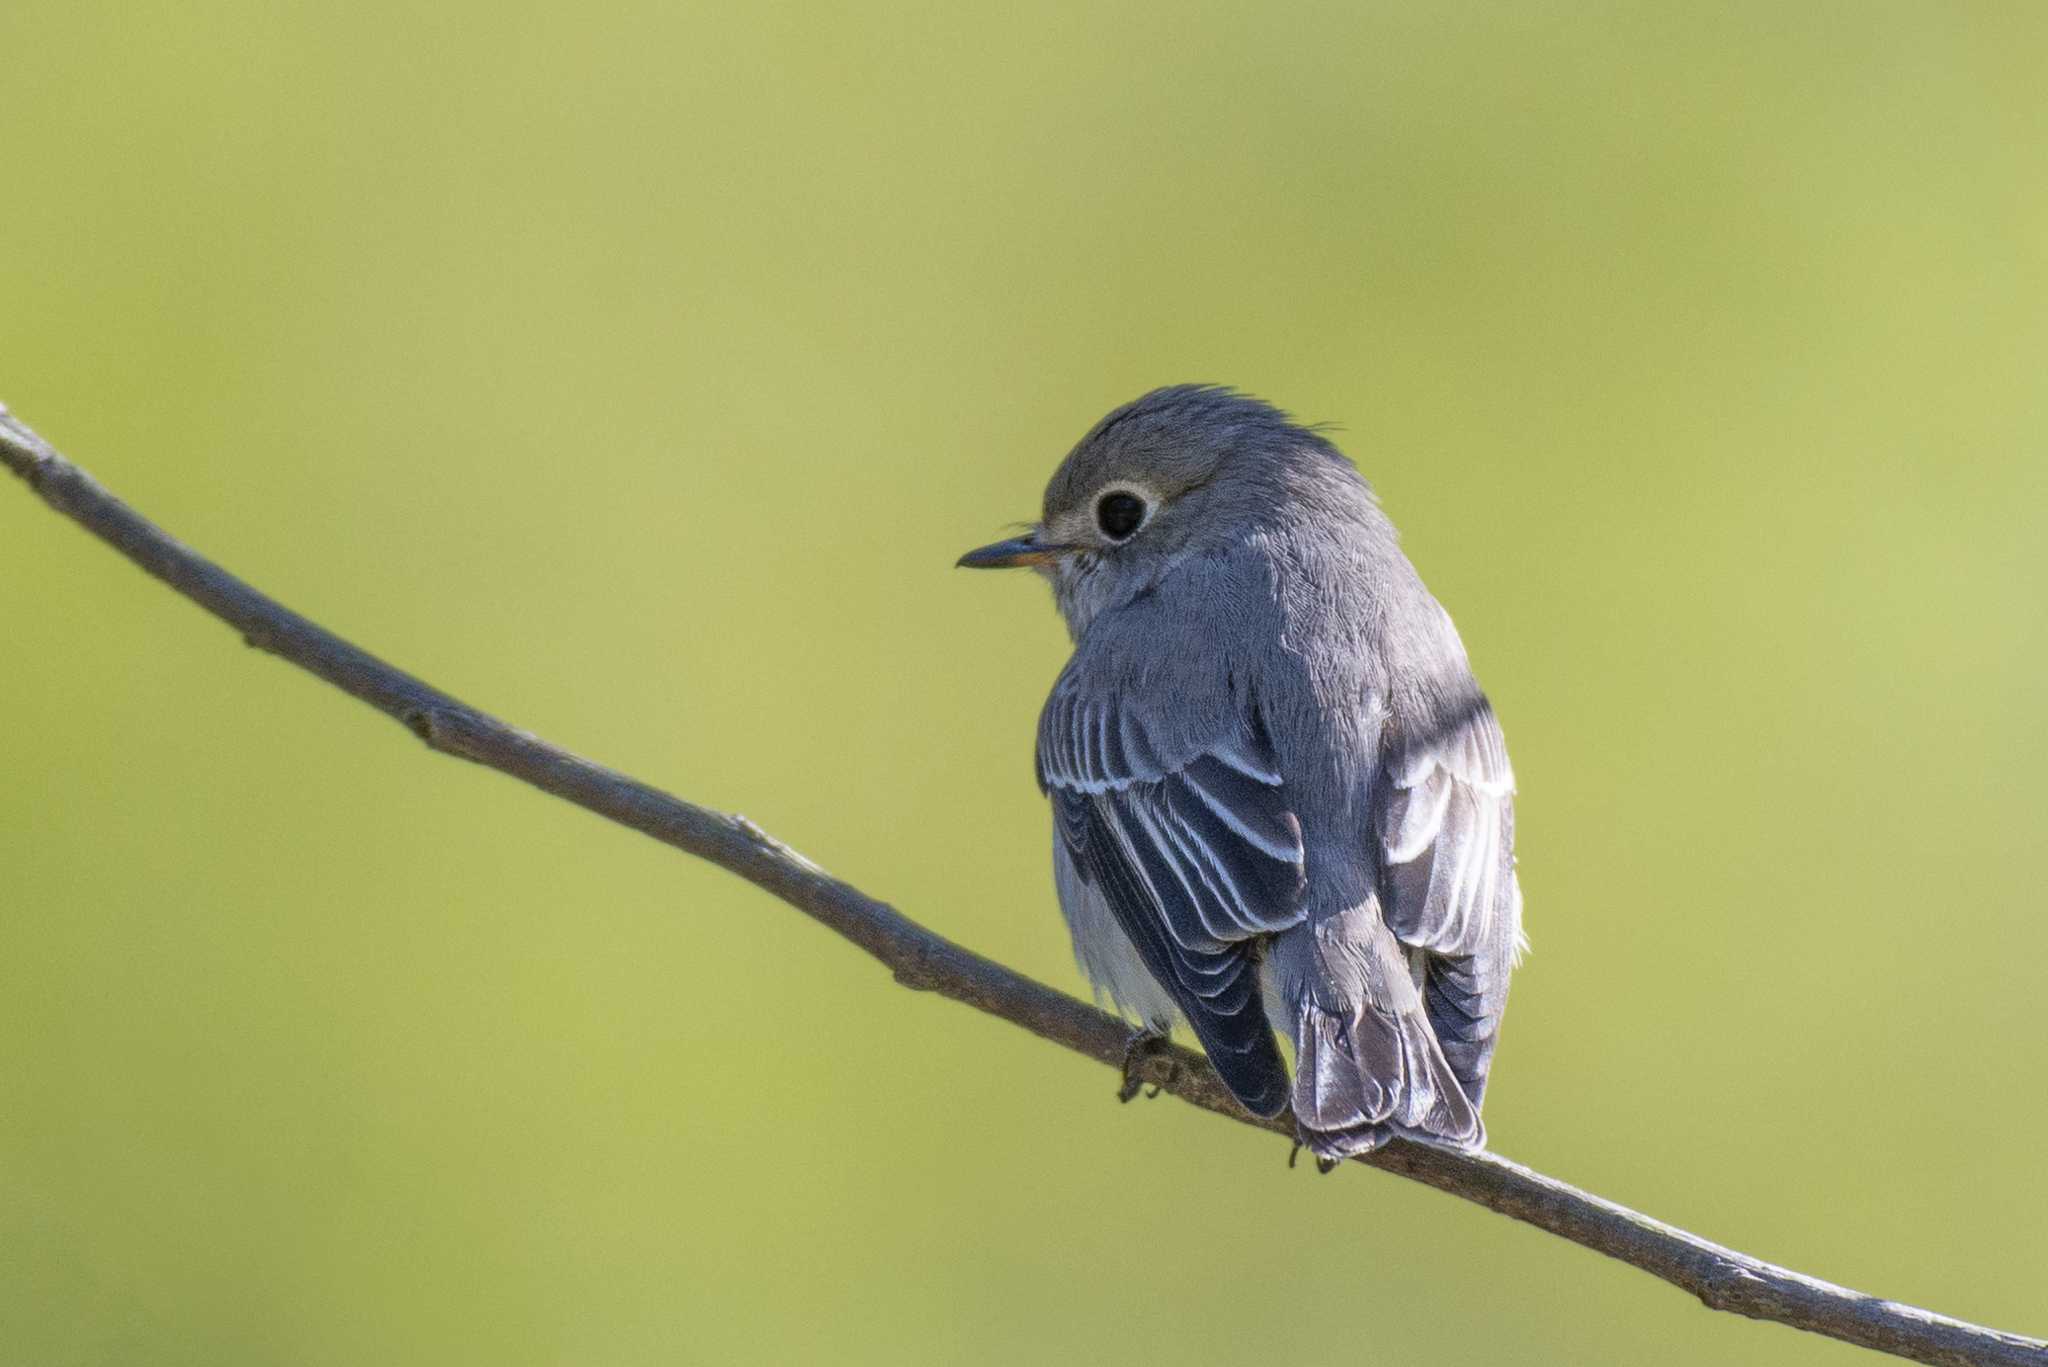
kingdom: Animalia
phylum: Chordata
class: Aves
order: Passeriformes
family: Muscicapidae
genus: Muscicapa
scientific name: Muscicapa latirostris
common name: Asian brown flycatcher
